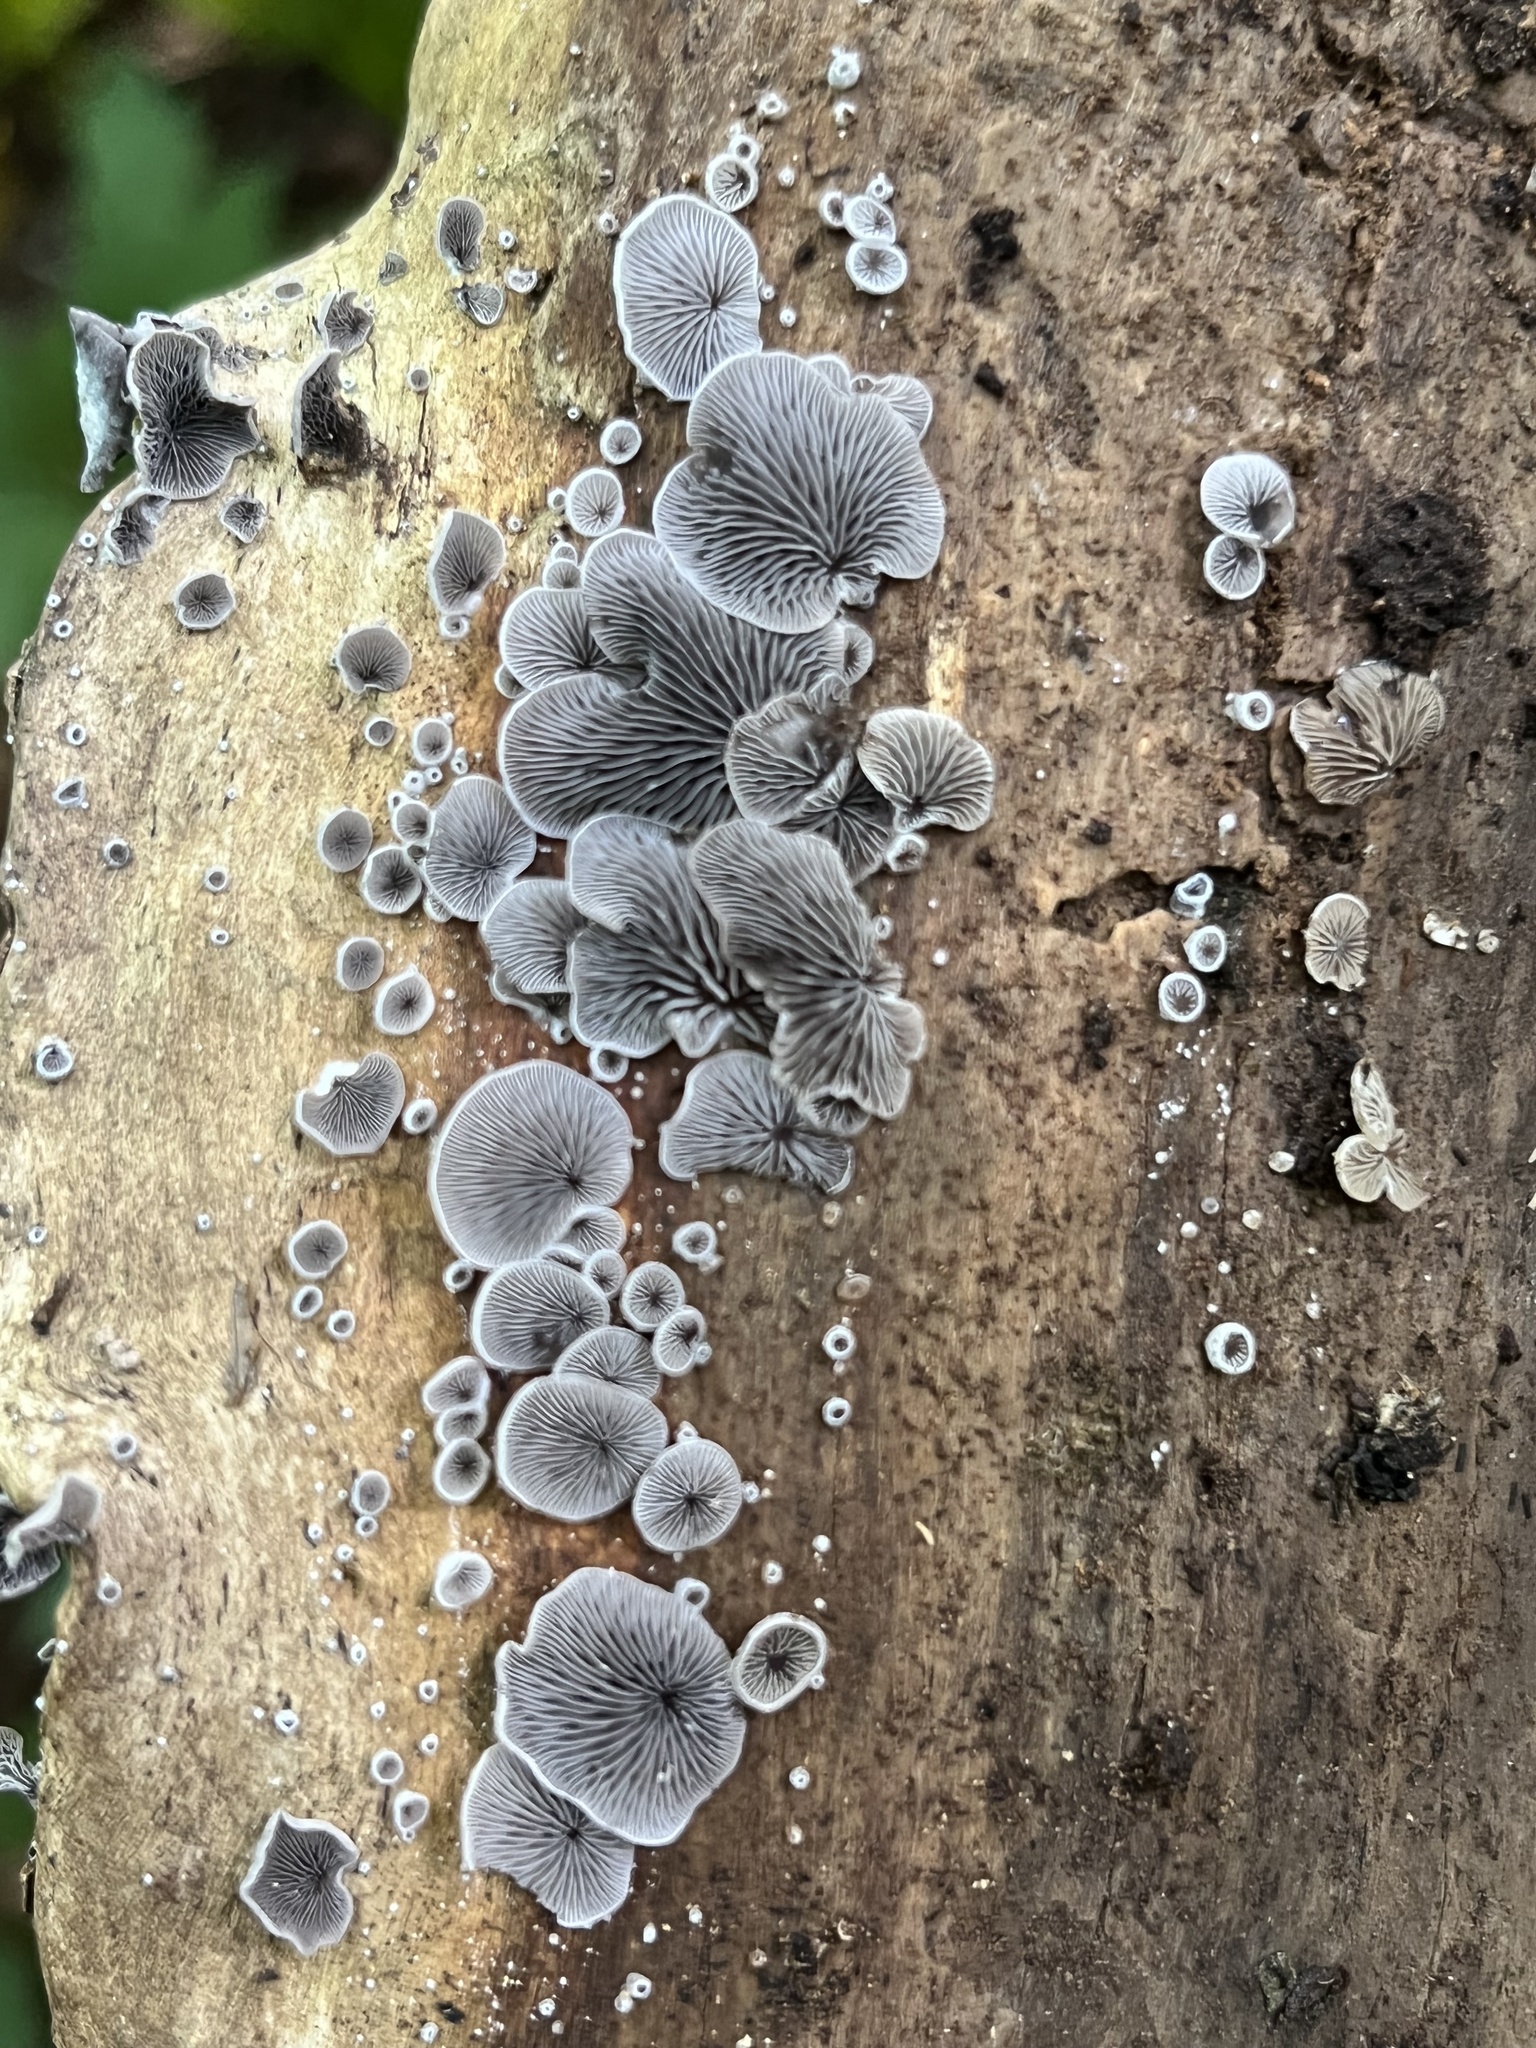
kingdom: Fungi
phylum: Basidiomycota
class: Agaricomycetes
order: Agaricales
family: Pleurotaceae
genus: Resupinatus
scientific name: Resupinatus applicatus
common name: Smoked oysterling
